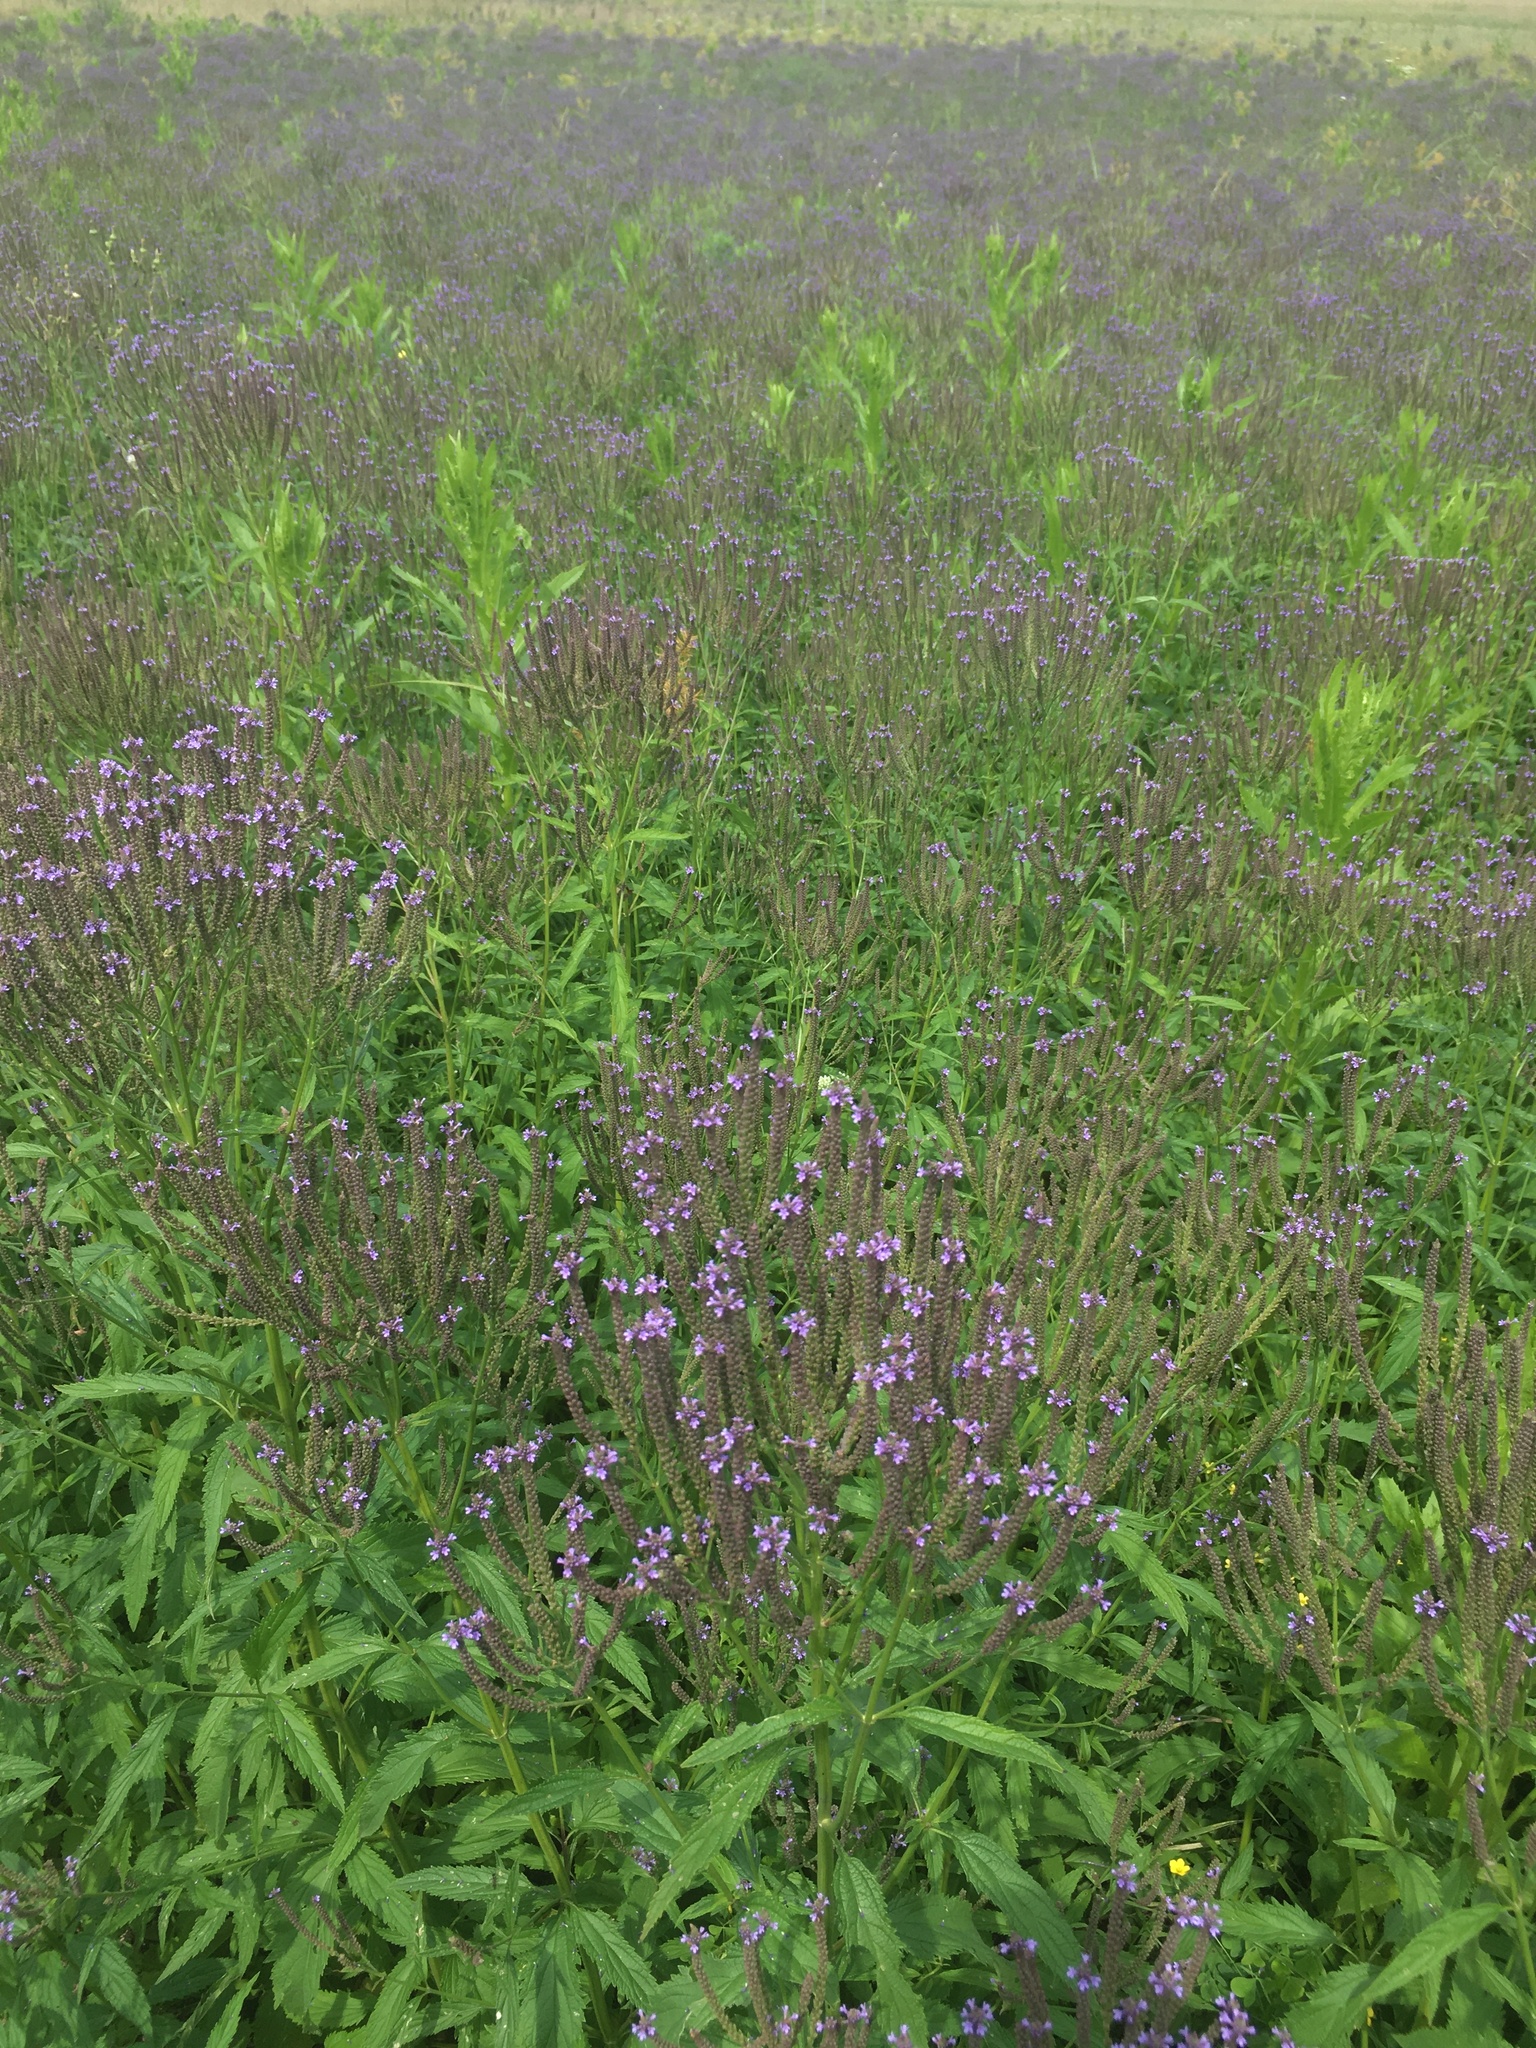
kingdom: Plantae
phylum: Tracheophyta
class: Magnoliopsida
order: Lamiales
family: Verbenaceae
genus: Verbena
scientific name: Verbena hastata
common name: American blue vervain
